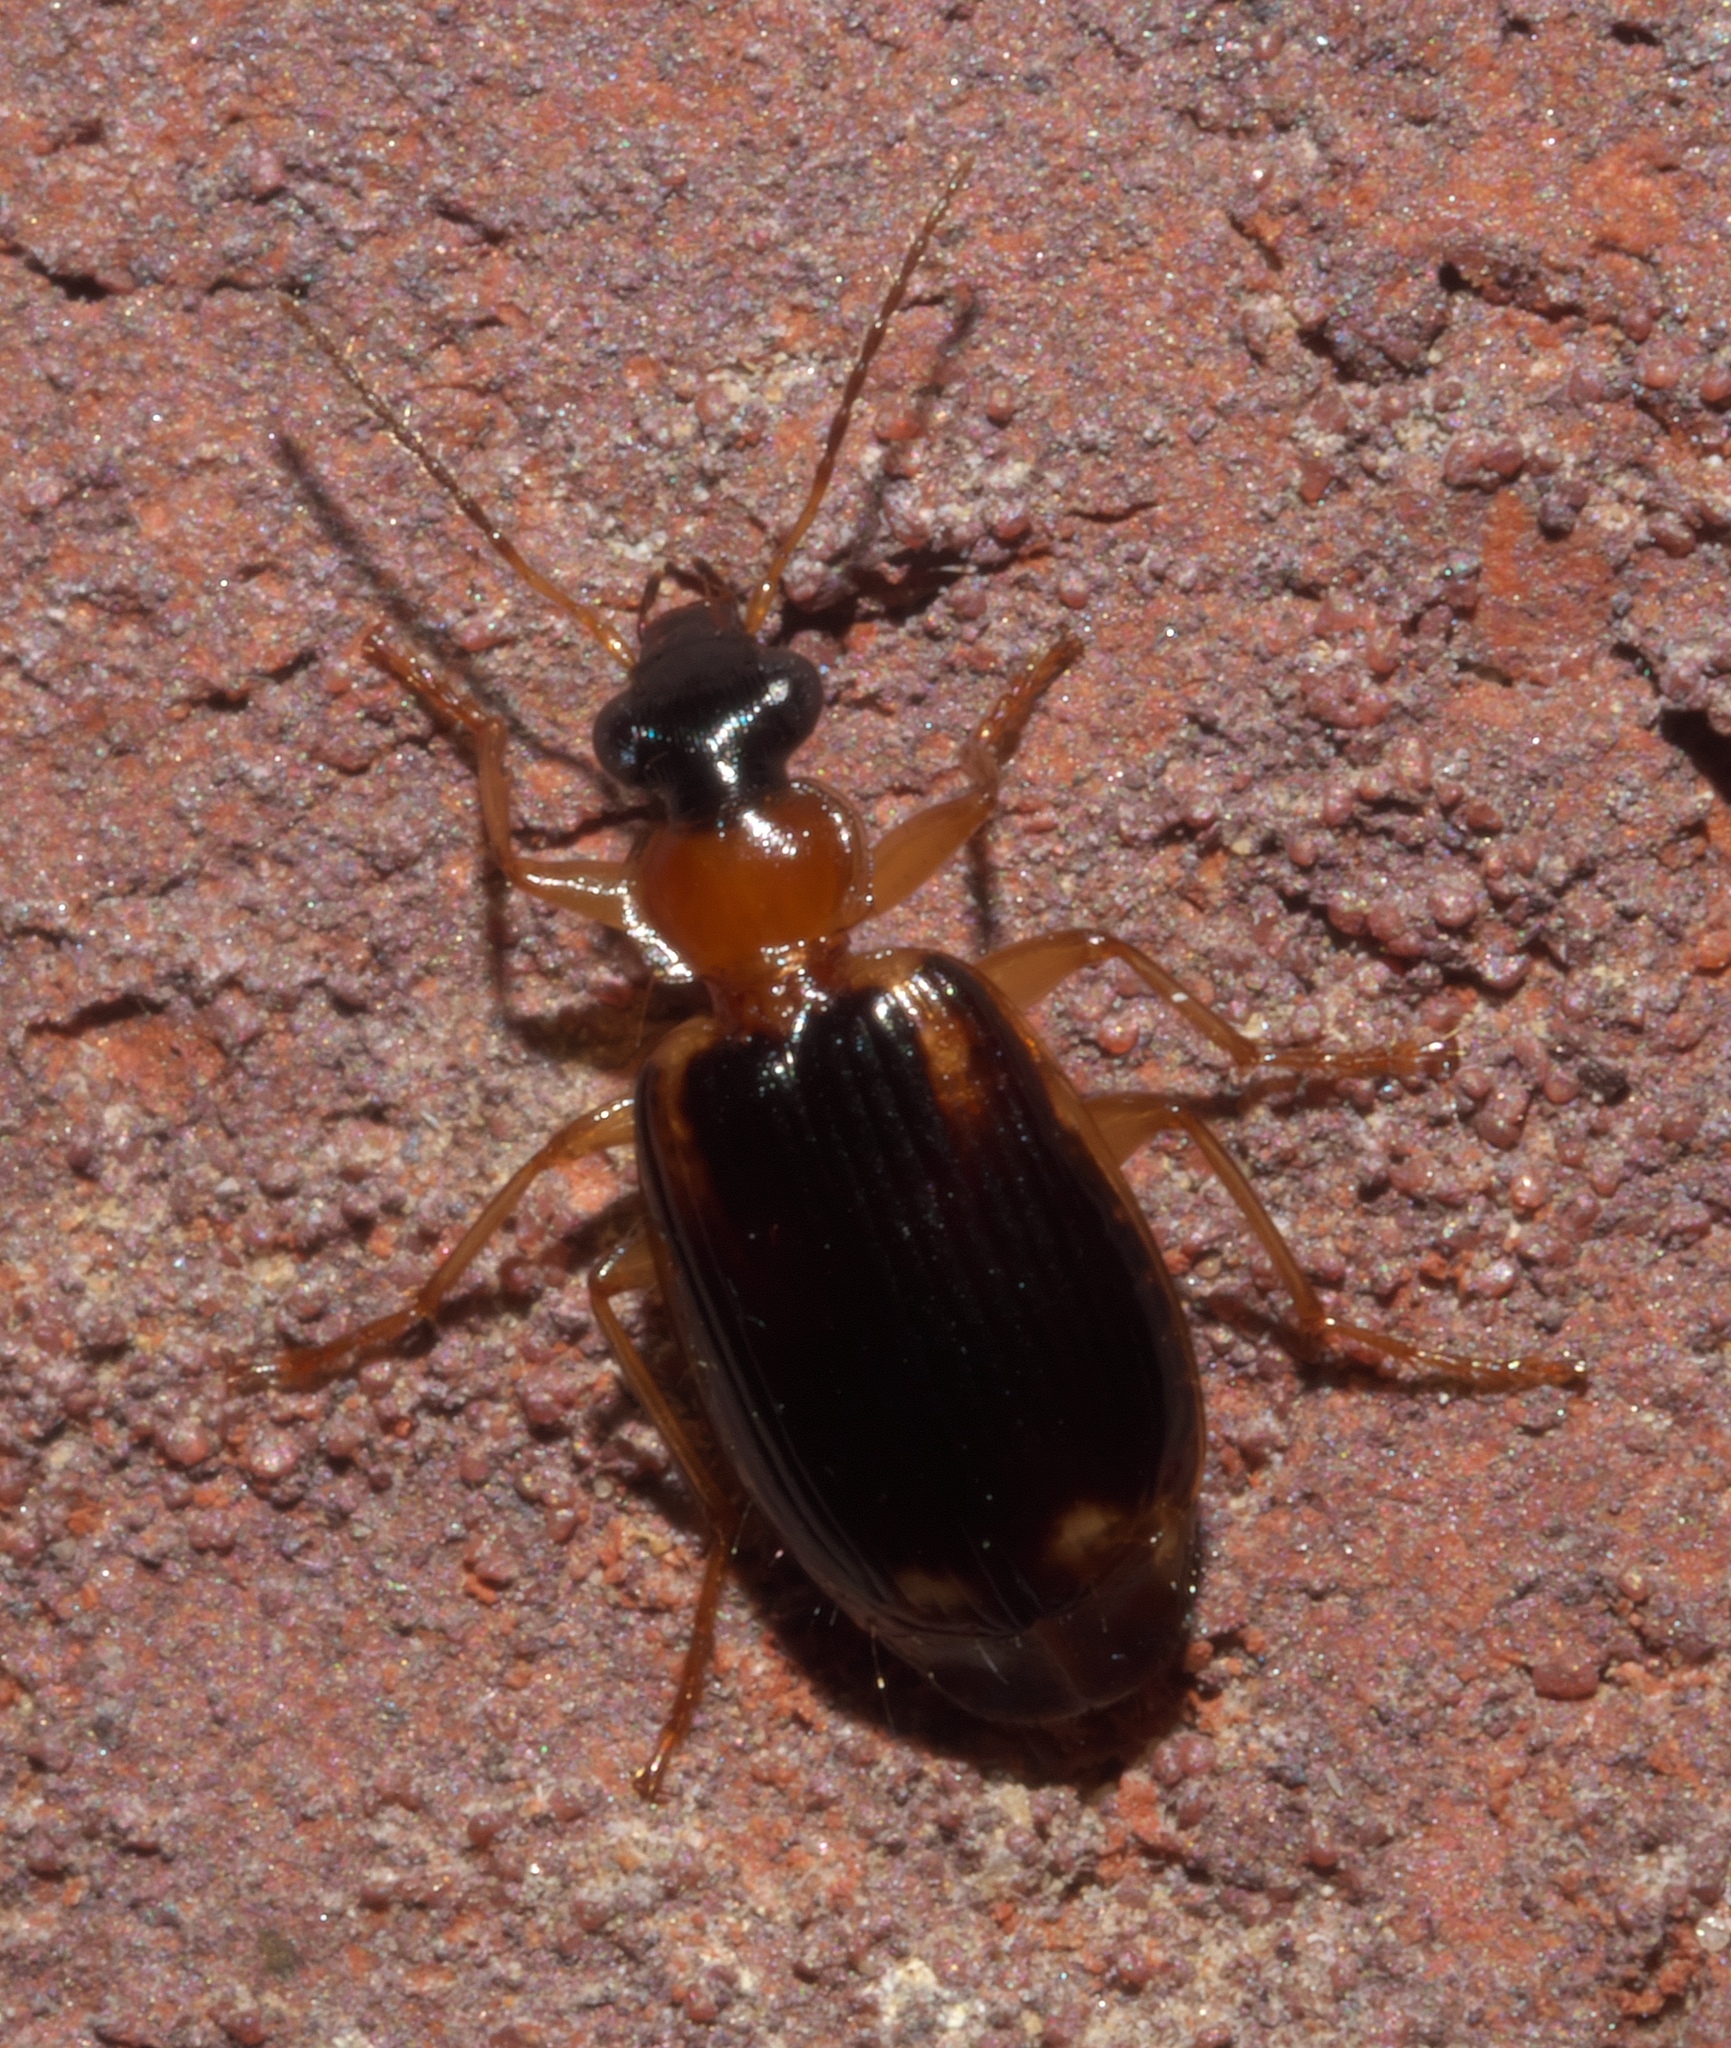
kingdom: Animalia
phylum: Arthropoda
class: Insecta
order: Coleoptera
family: Carabidae
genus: Lebia
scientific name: Lebia analis
